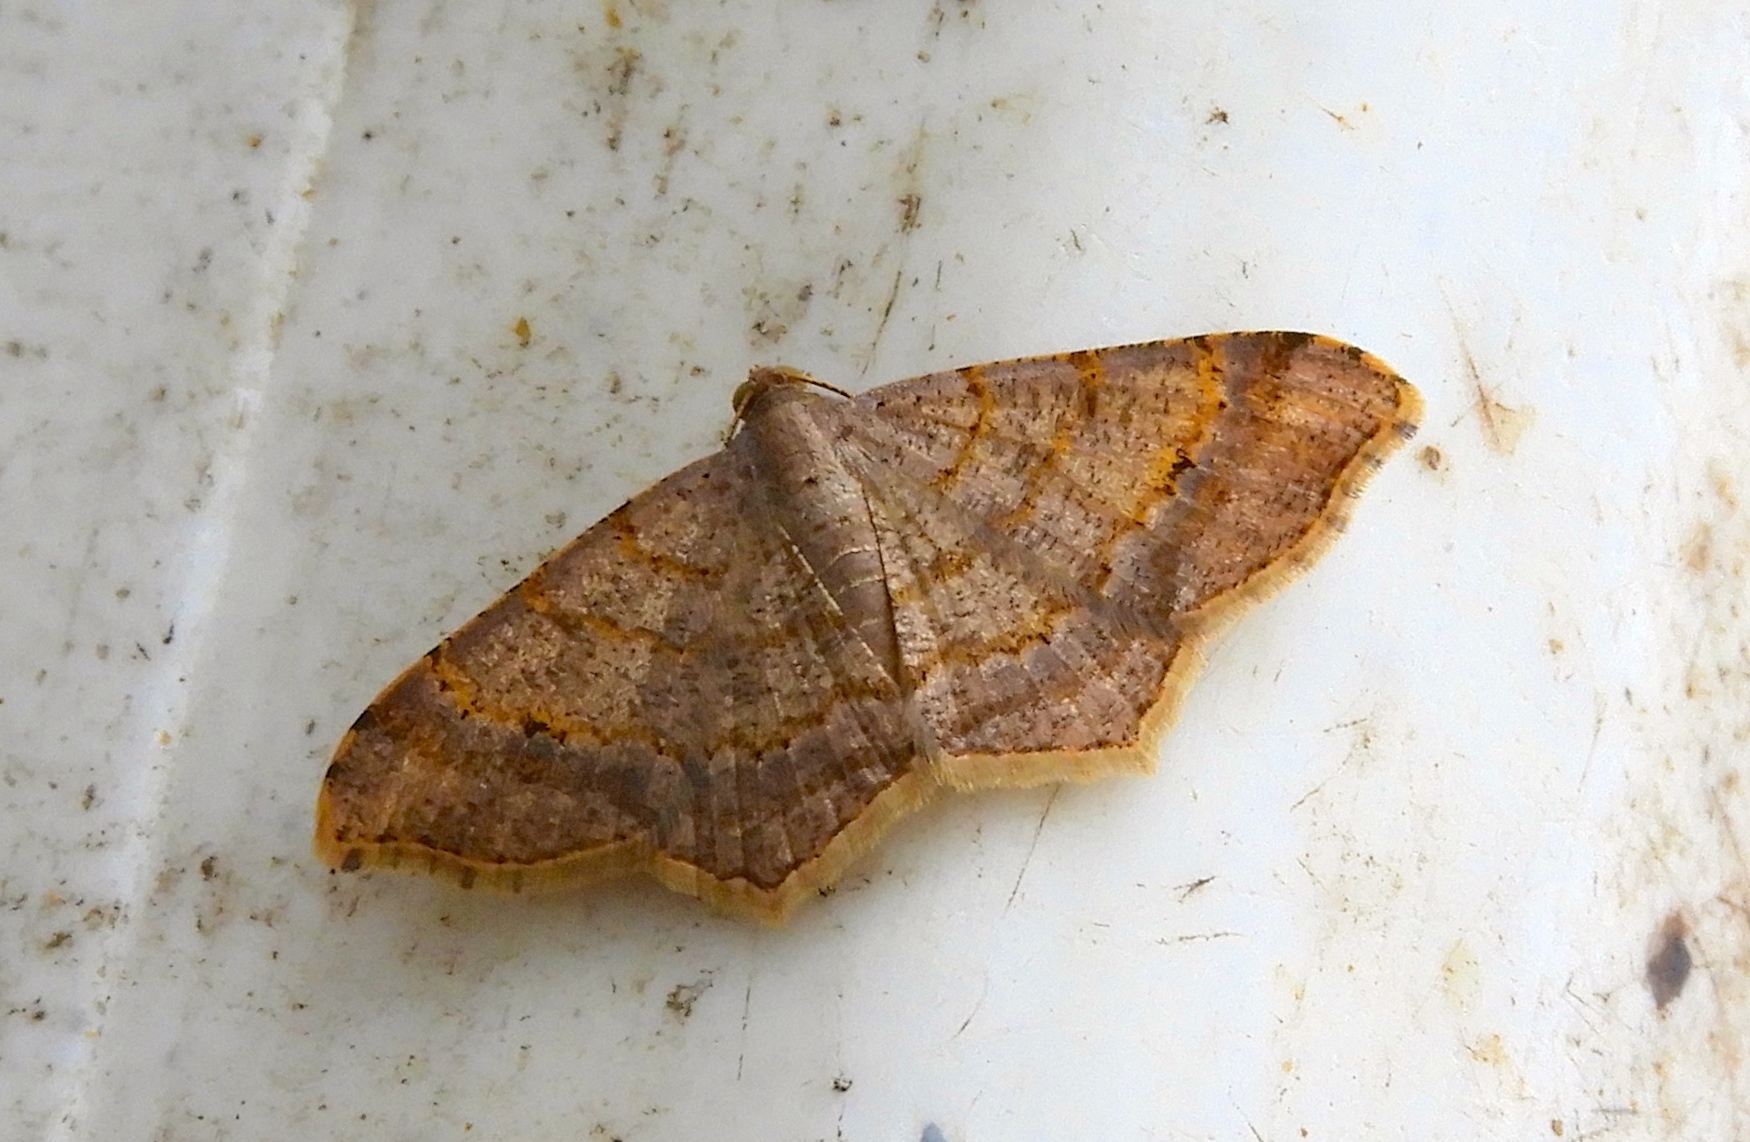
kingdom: Animalia
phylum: Arthropoda
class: Insecta
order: Lepidoptera
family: Geometridae
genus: Macaria
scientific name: Macaria abydata
